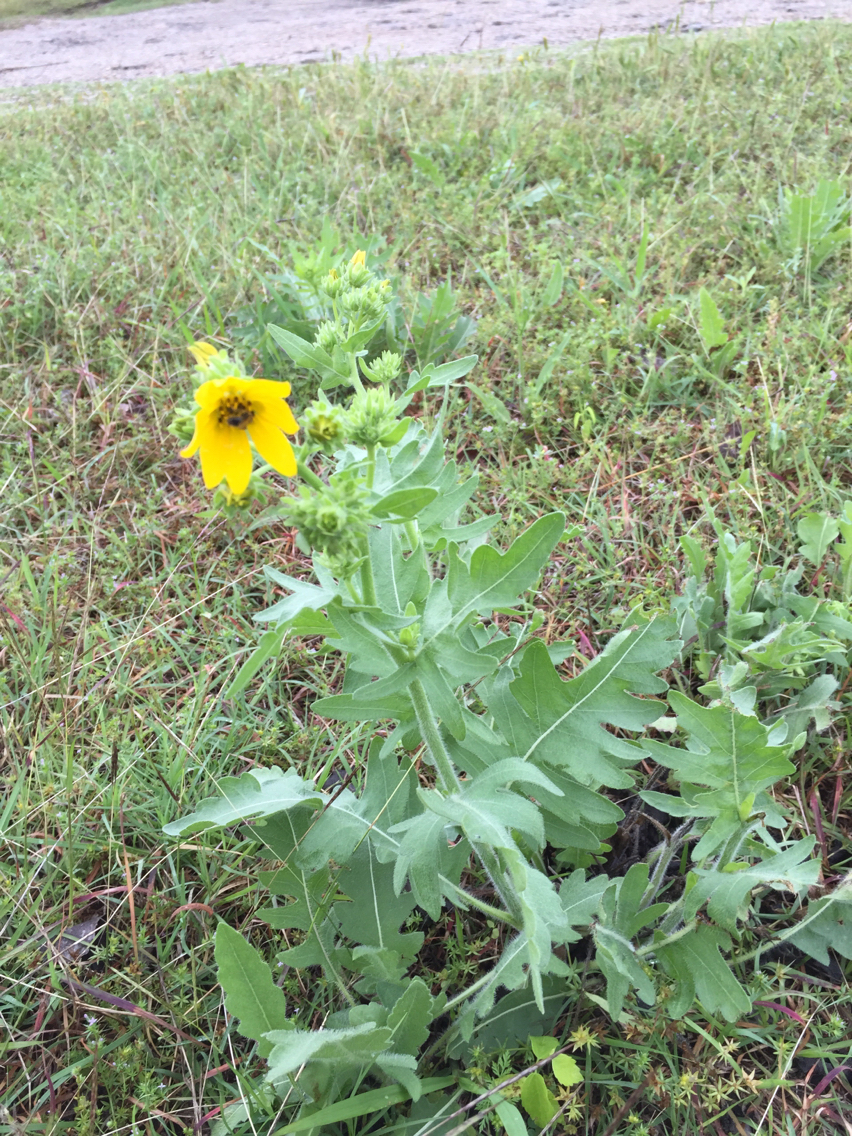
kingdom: Plantae
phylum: Tracheophyta
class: Magnoliopsida
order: Asterales
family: Asteraceae
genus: Engelmannia
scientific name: Engelmannia peristenia
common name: Engelmann's daisy
